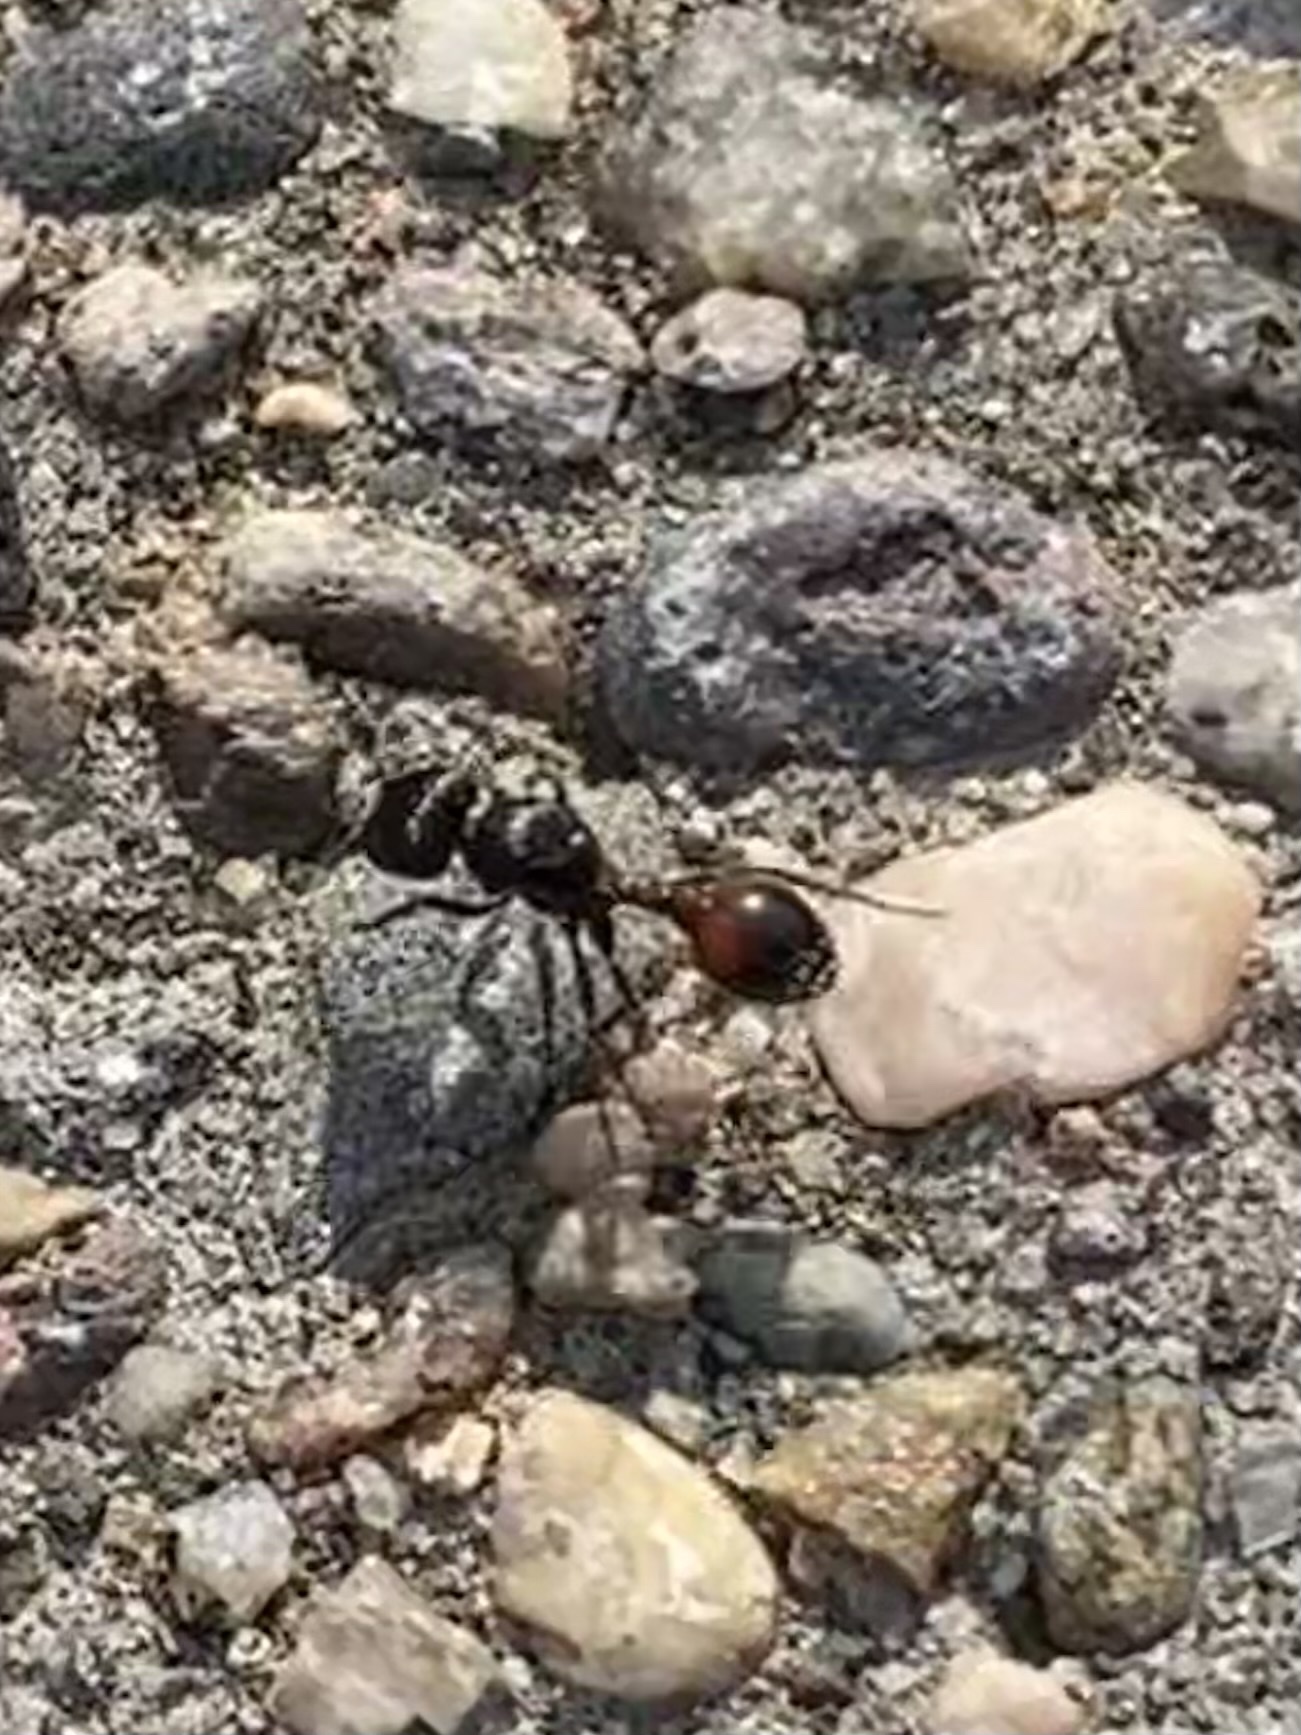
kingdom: Animalia
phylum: Arthropoda
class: Insecta
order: Hymenoptera
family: Formicidae
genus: Pogonomyrmex
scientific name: Pogonomyrmex rugosus
